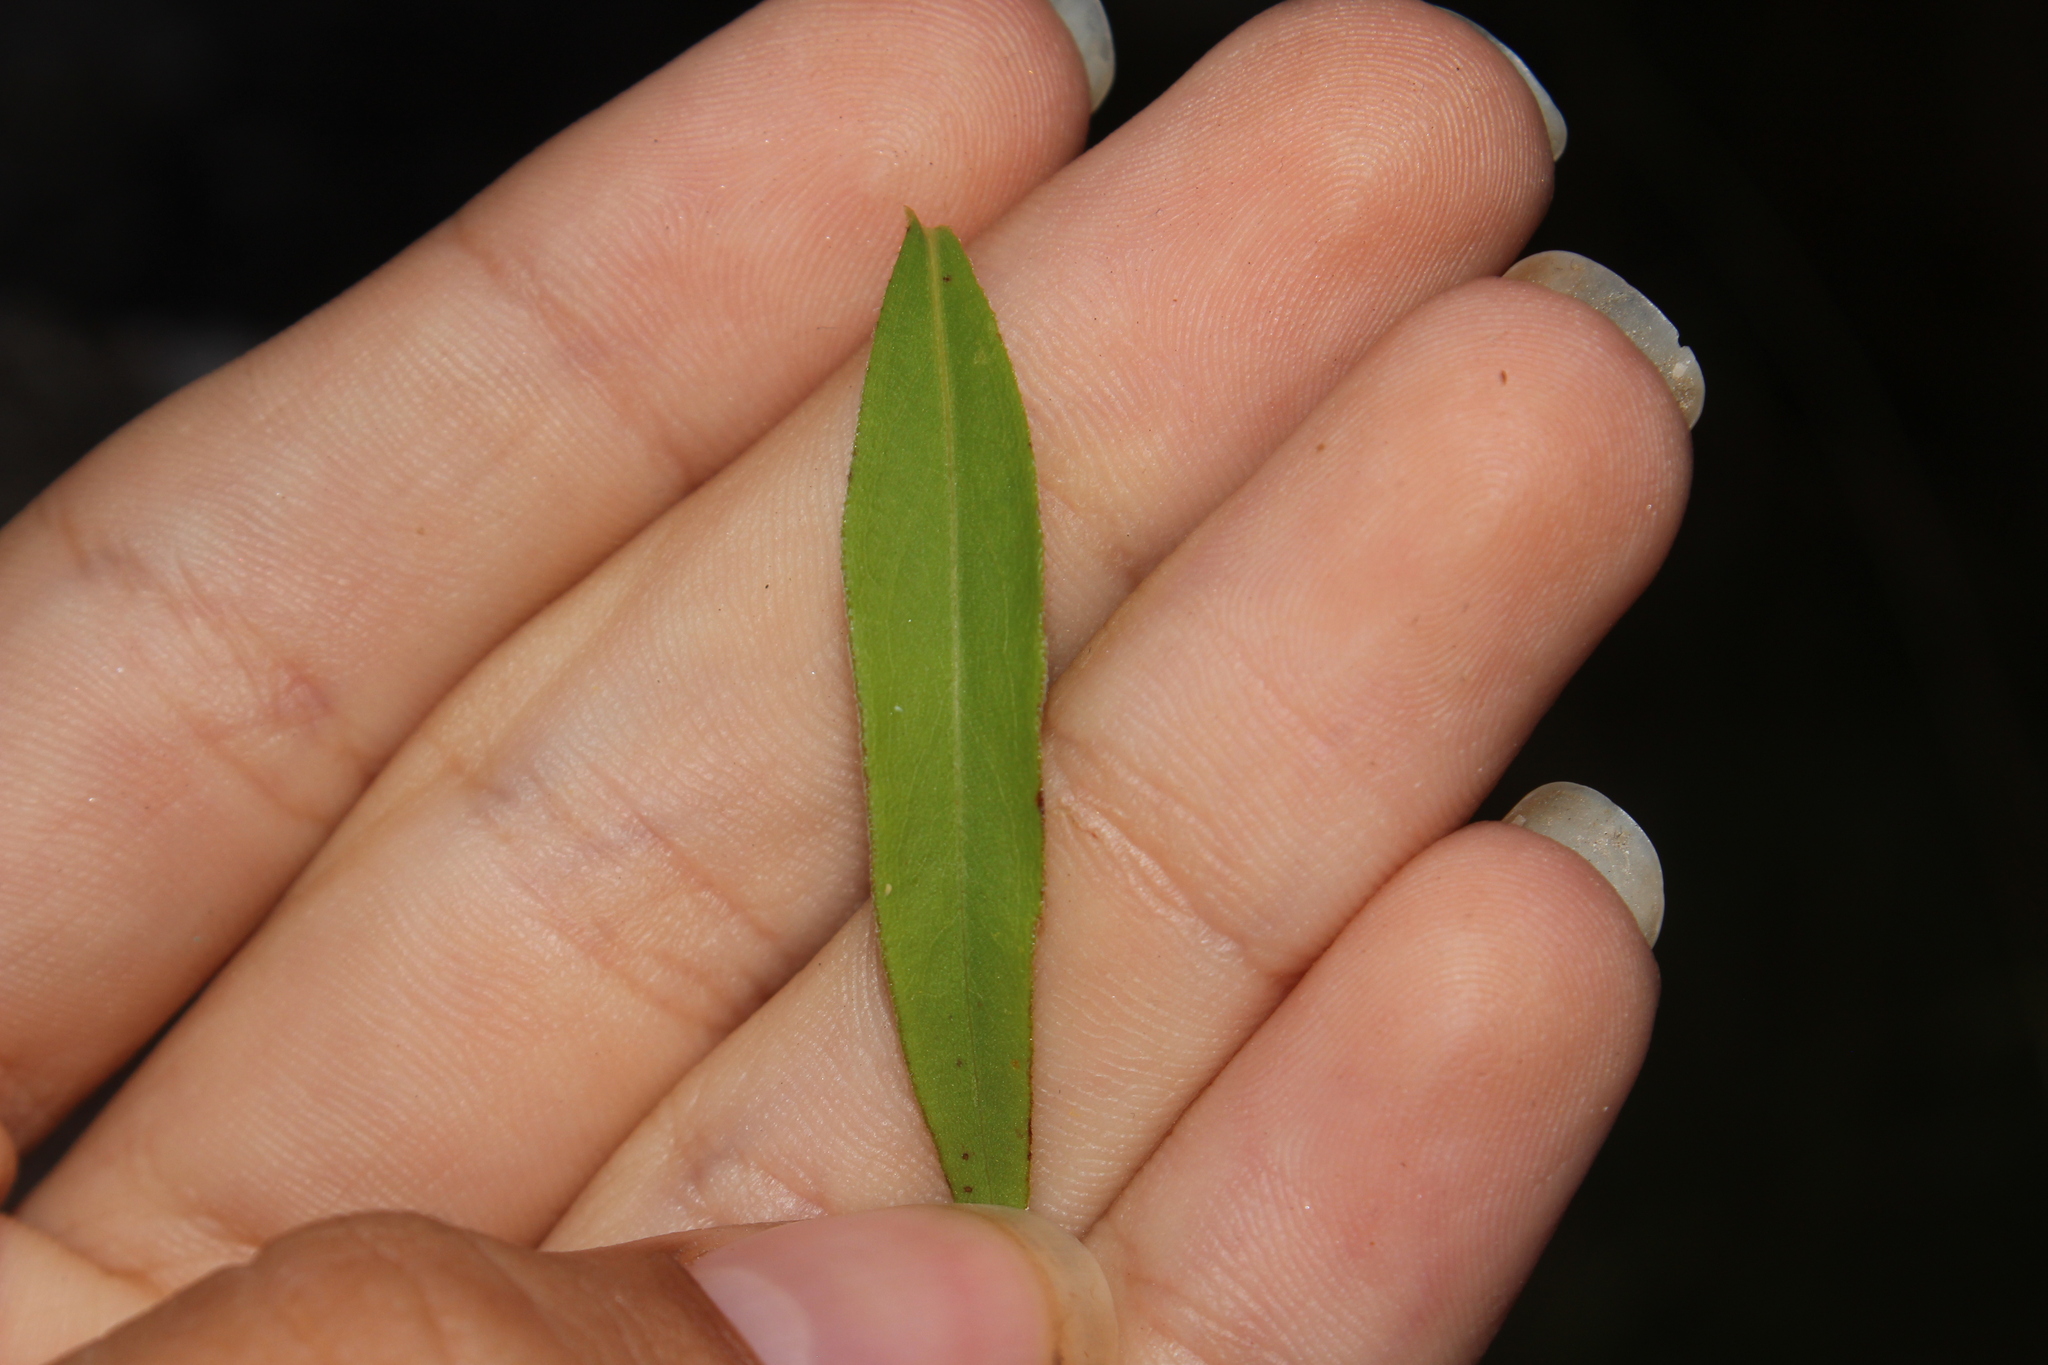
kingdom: Plantae
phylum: Tracheophyta
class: Magnoliopsida
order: Asterales
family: Asteraceae
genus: Solidago
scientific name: Solidago juncea
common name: Early goldenrod
